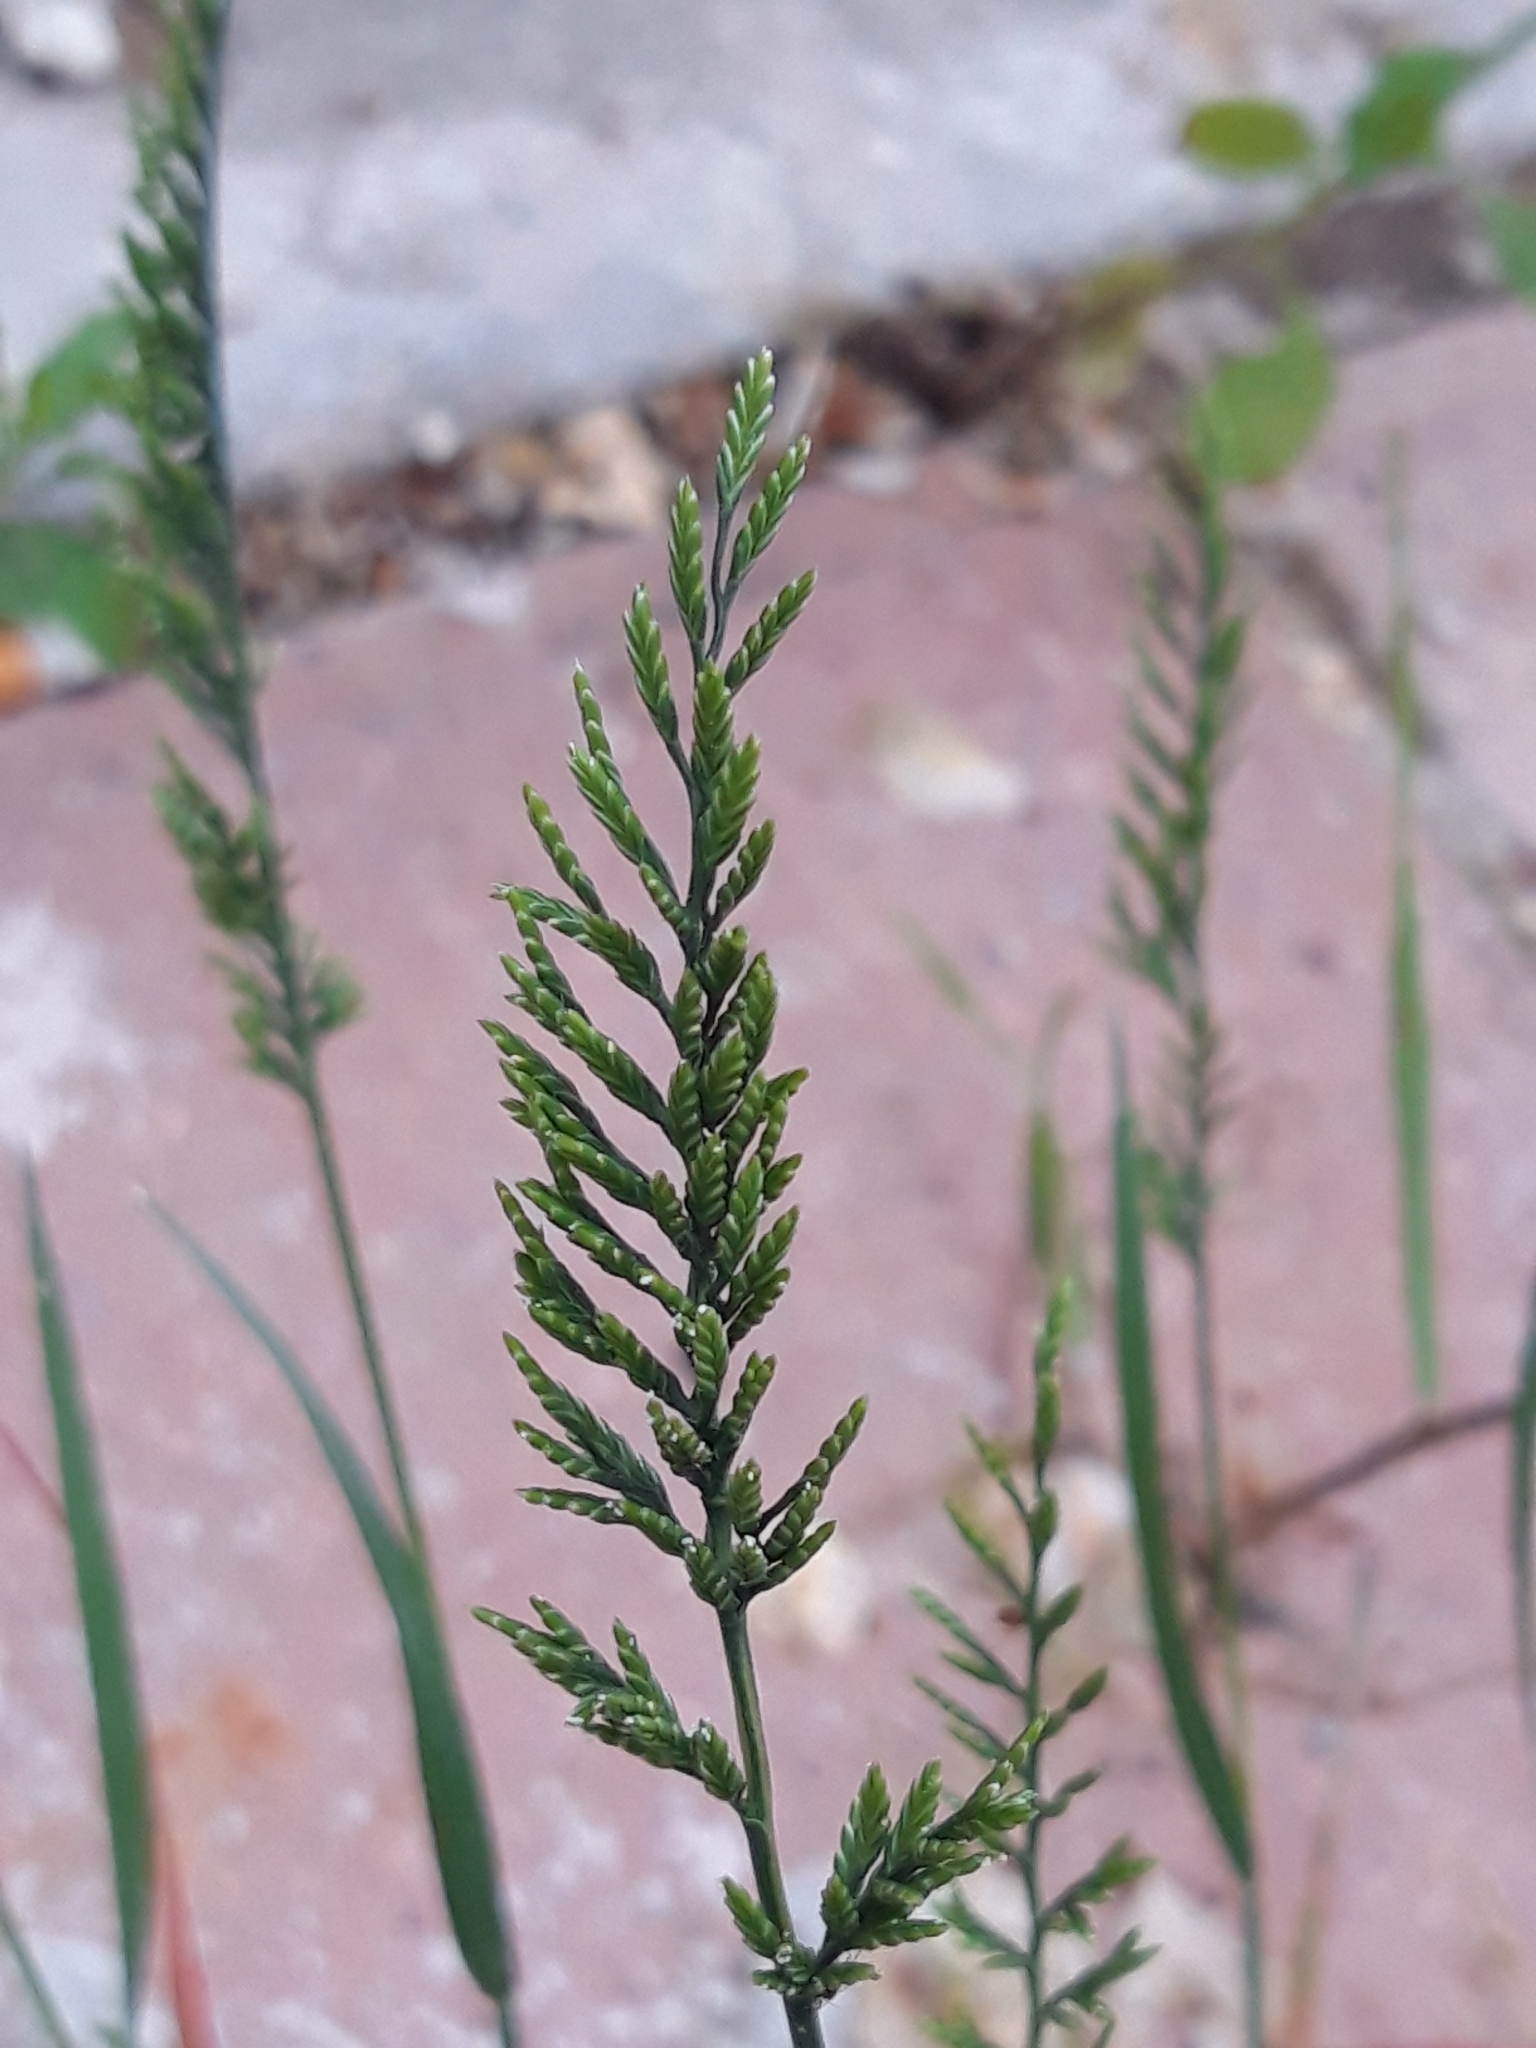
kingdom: Plantae
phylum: Tracheophyta
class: Liliopsida
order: Poales
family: Poaceae
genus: Catapodium
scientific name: Catapodium rigidum
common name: Fern-grass
